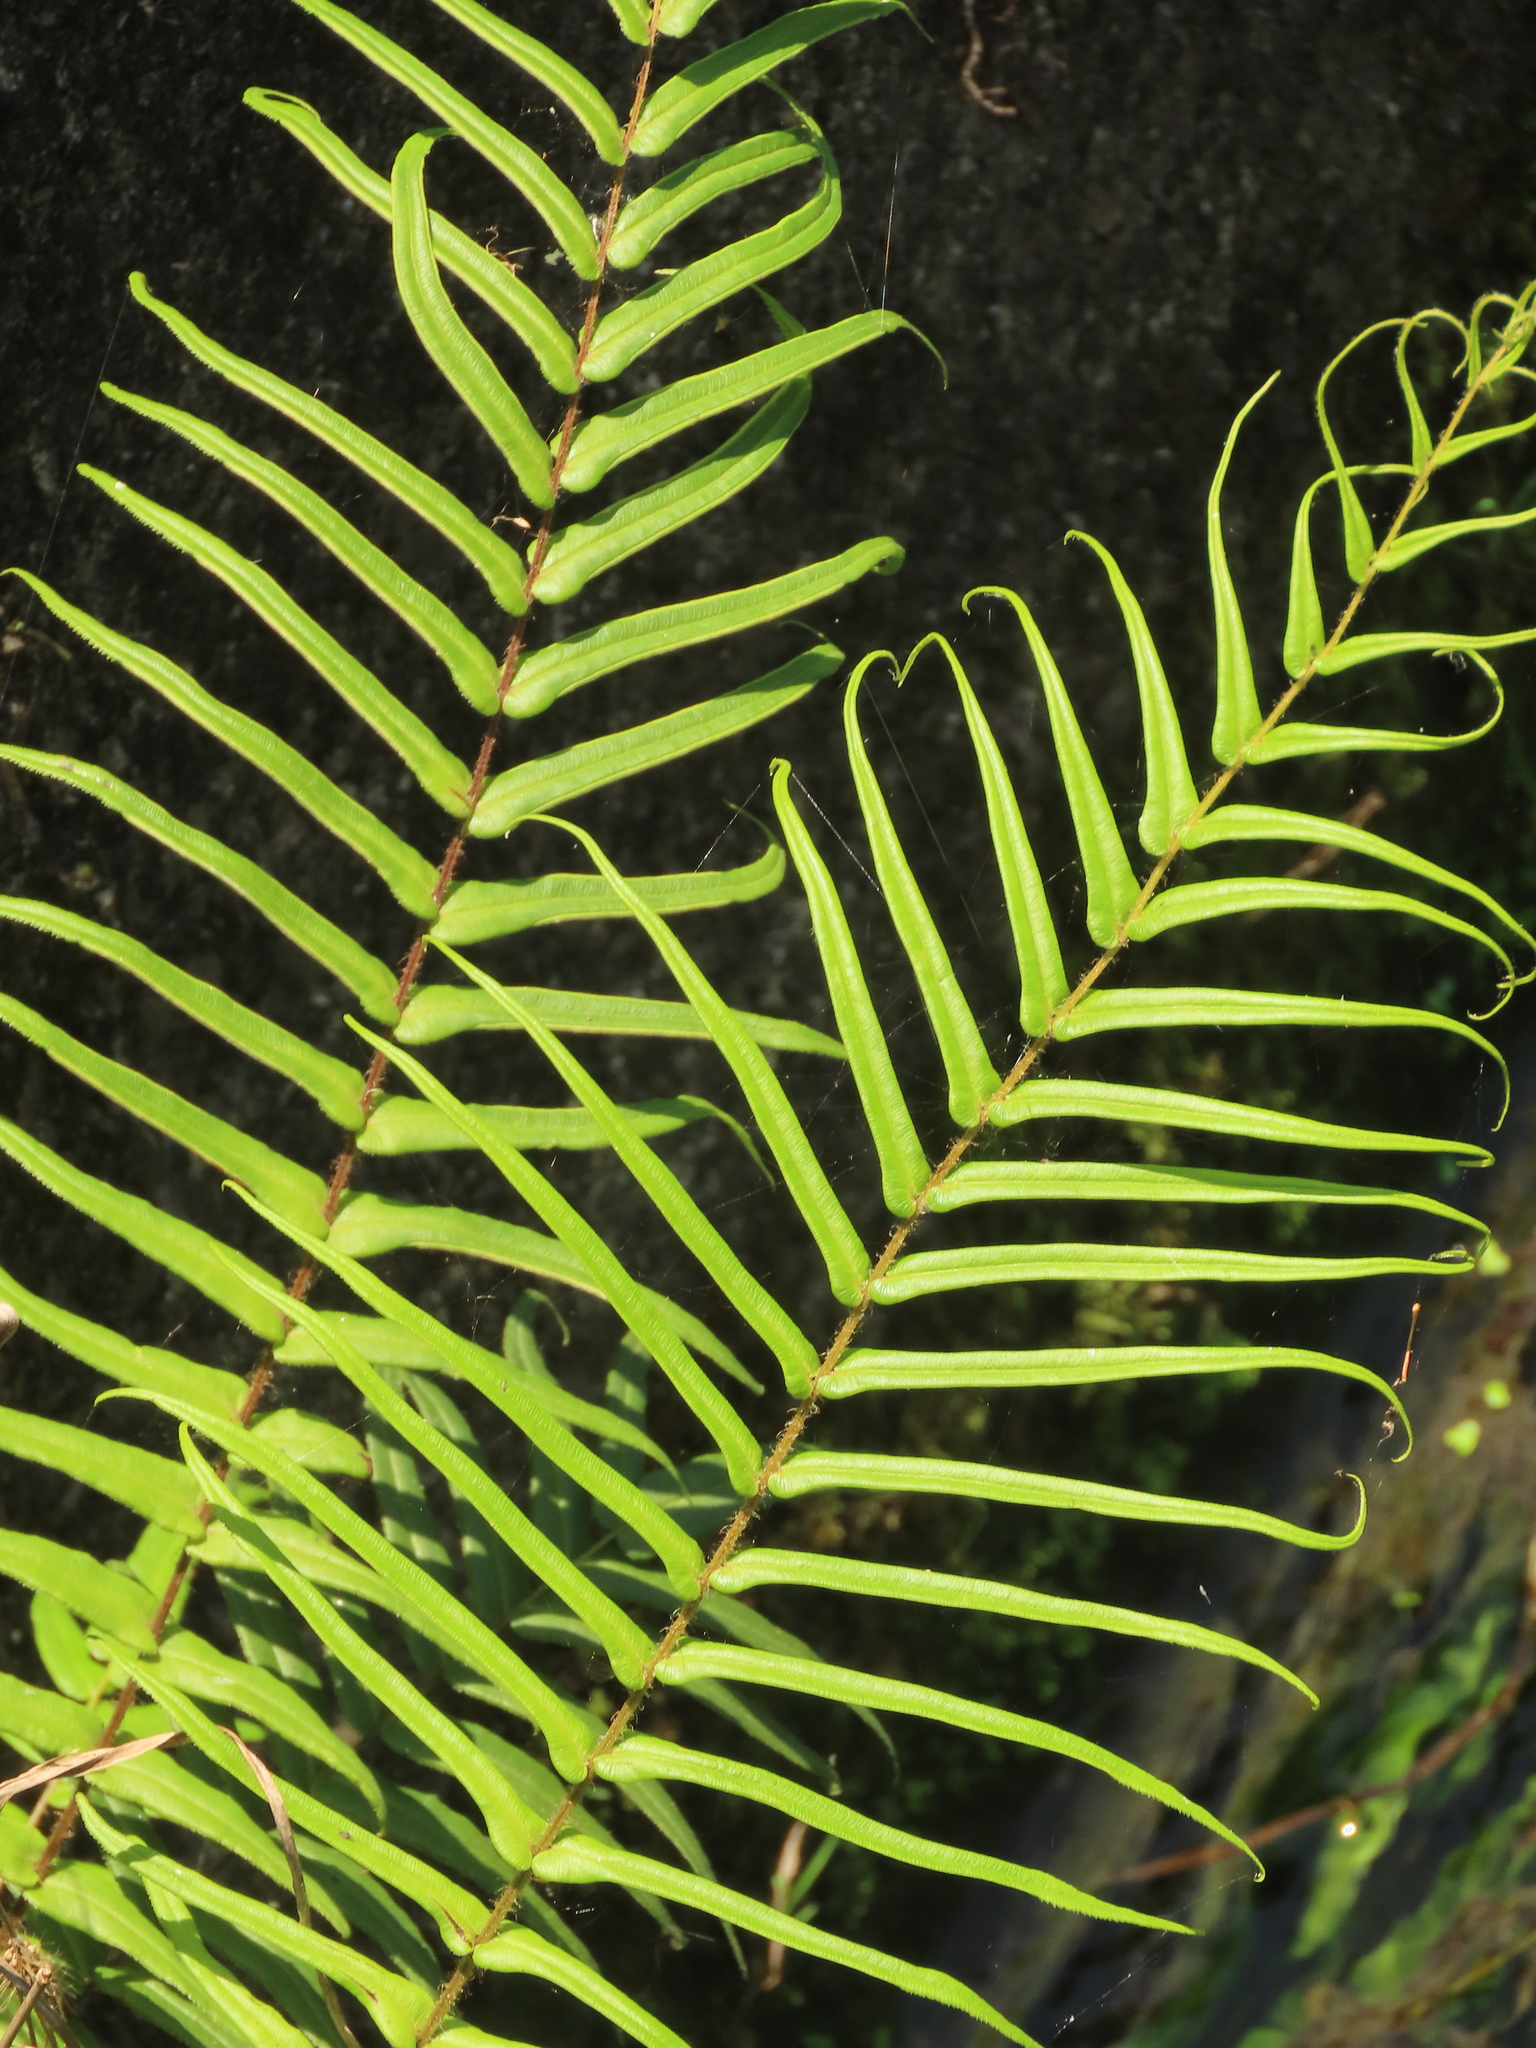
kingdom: Plantae
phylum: Tracheophyta
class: Polypodiopsida
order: Polypodiales
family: Pteridaceae
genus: Pteris
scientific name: Pteris vittata
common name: Ladder brake
